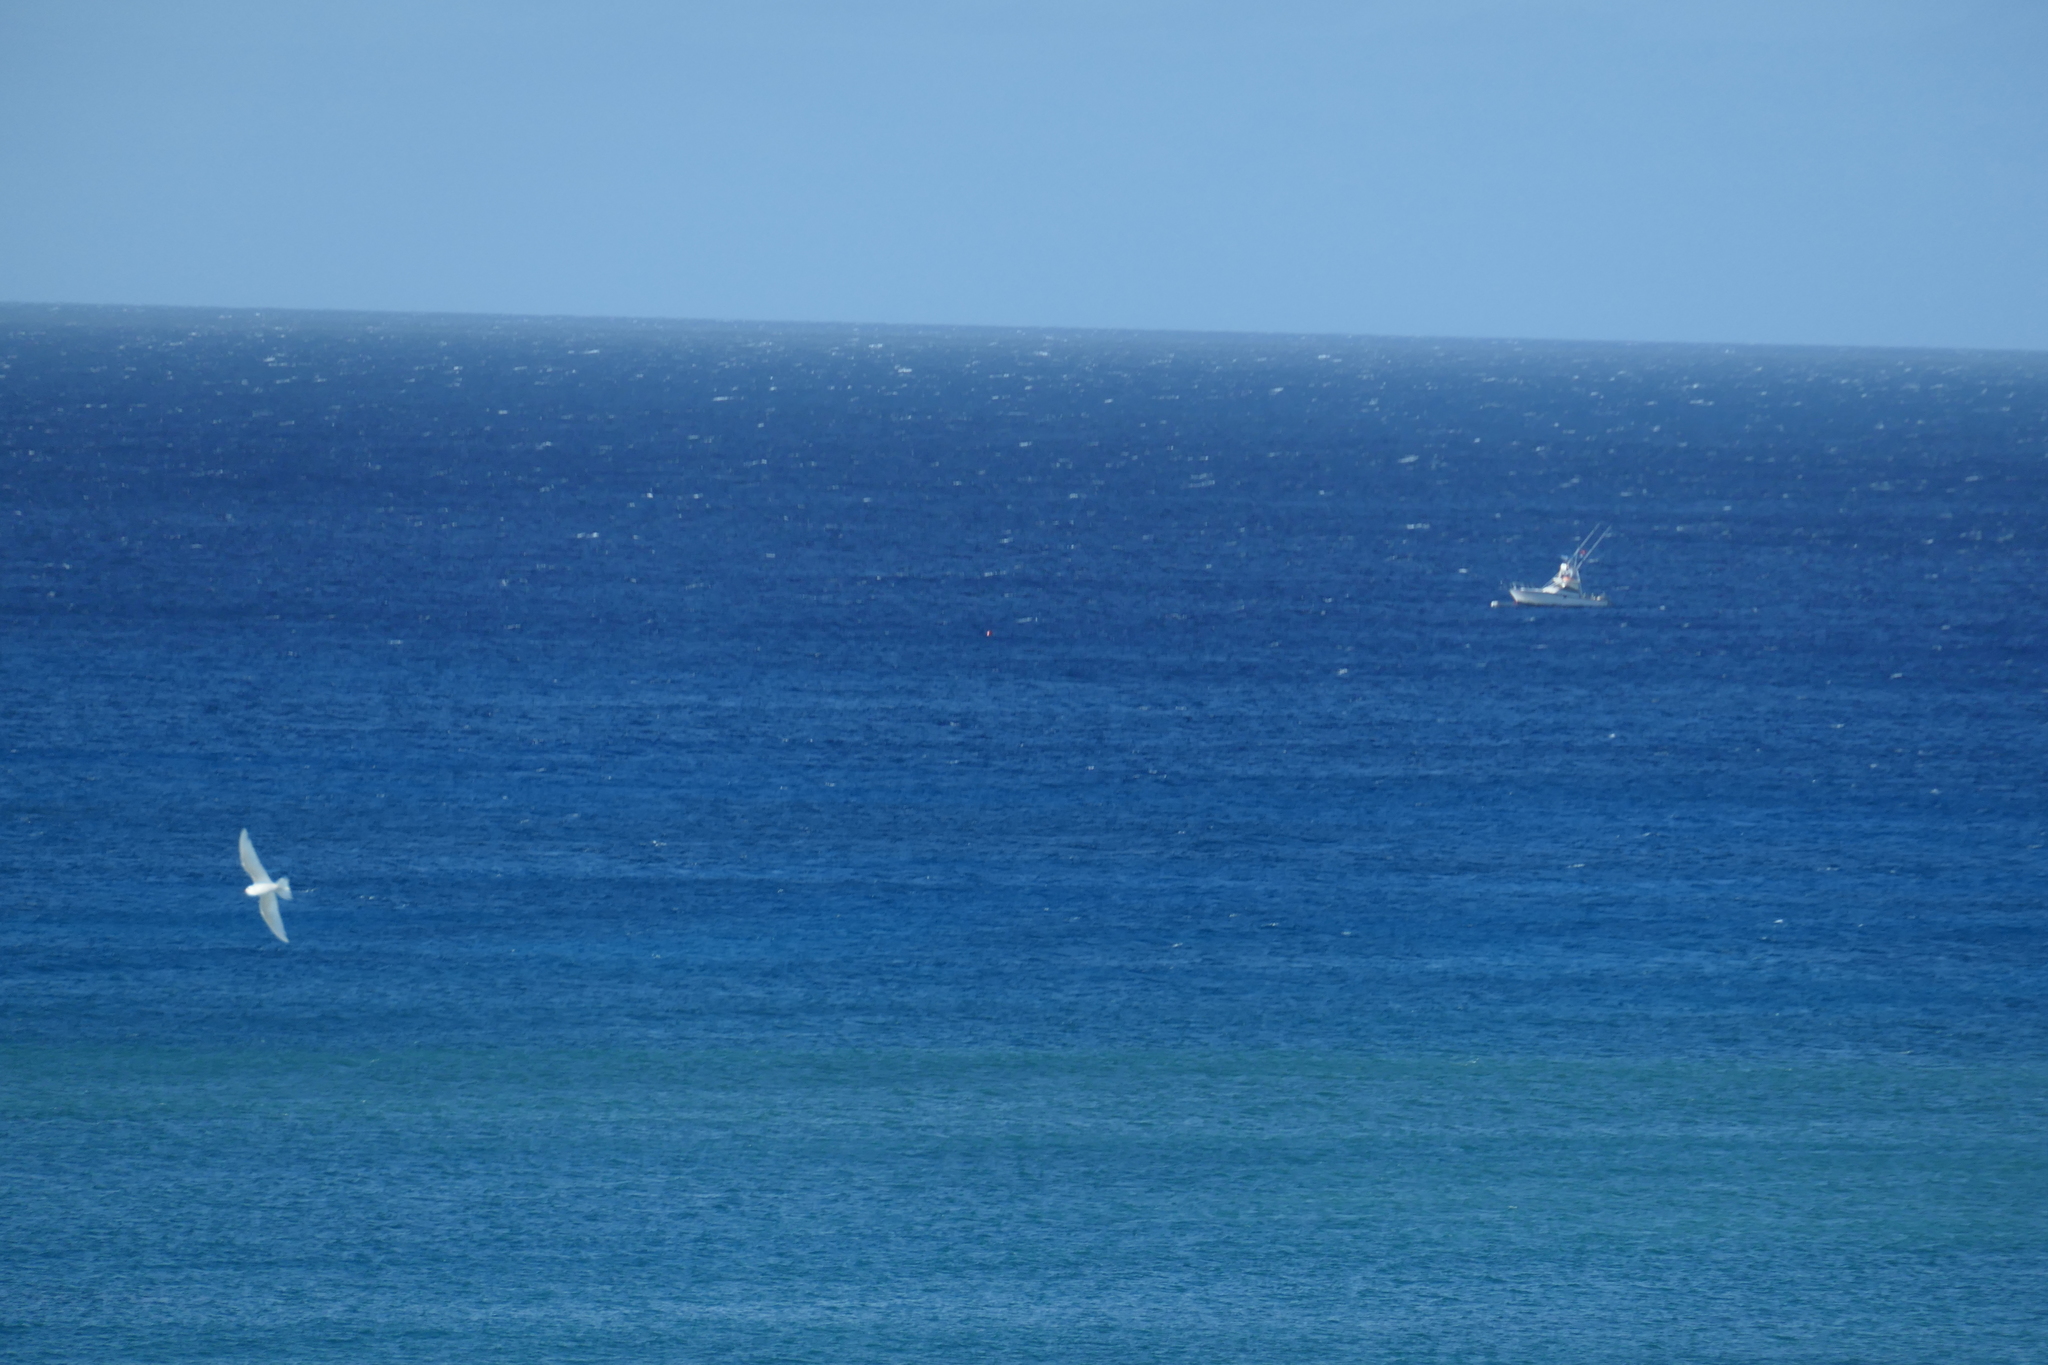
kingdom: Animalia
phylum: Chordata
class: Aves
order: Charadriiformes
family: Laridae
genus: Gygis
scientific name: Gygis alba
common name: White tern
